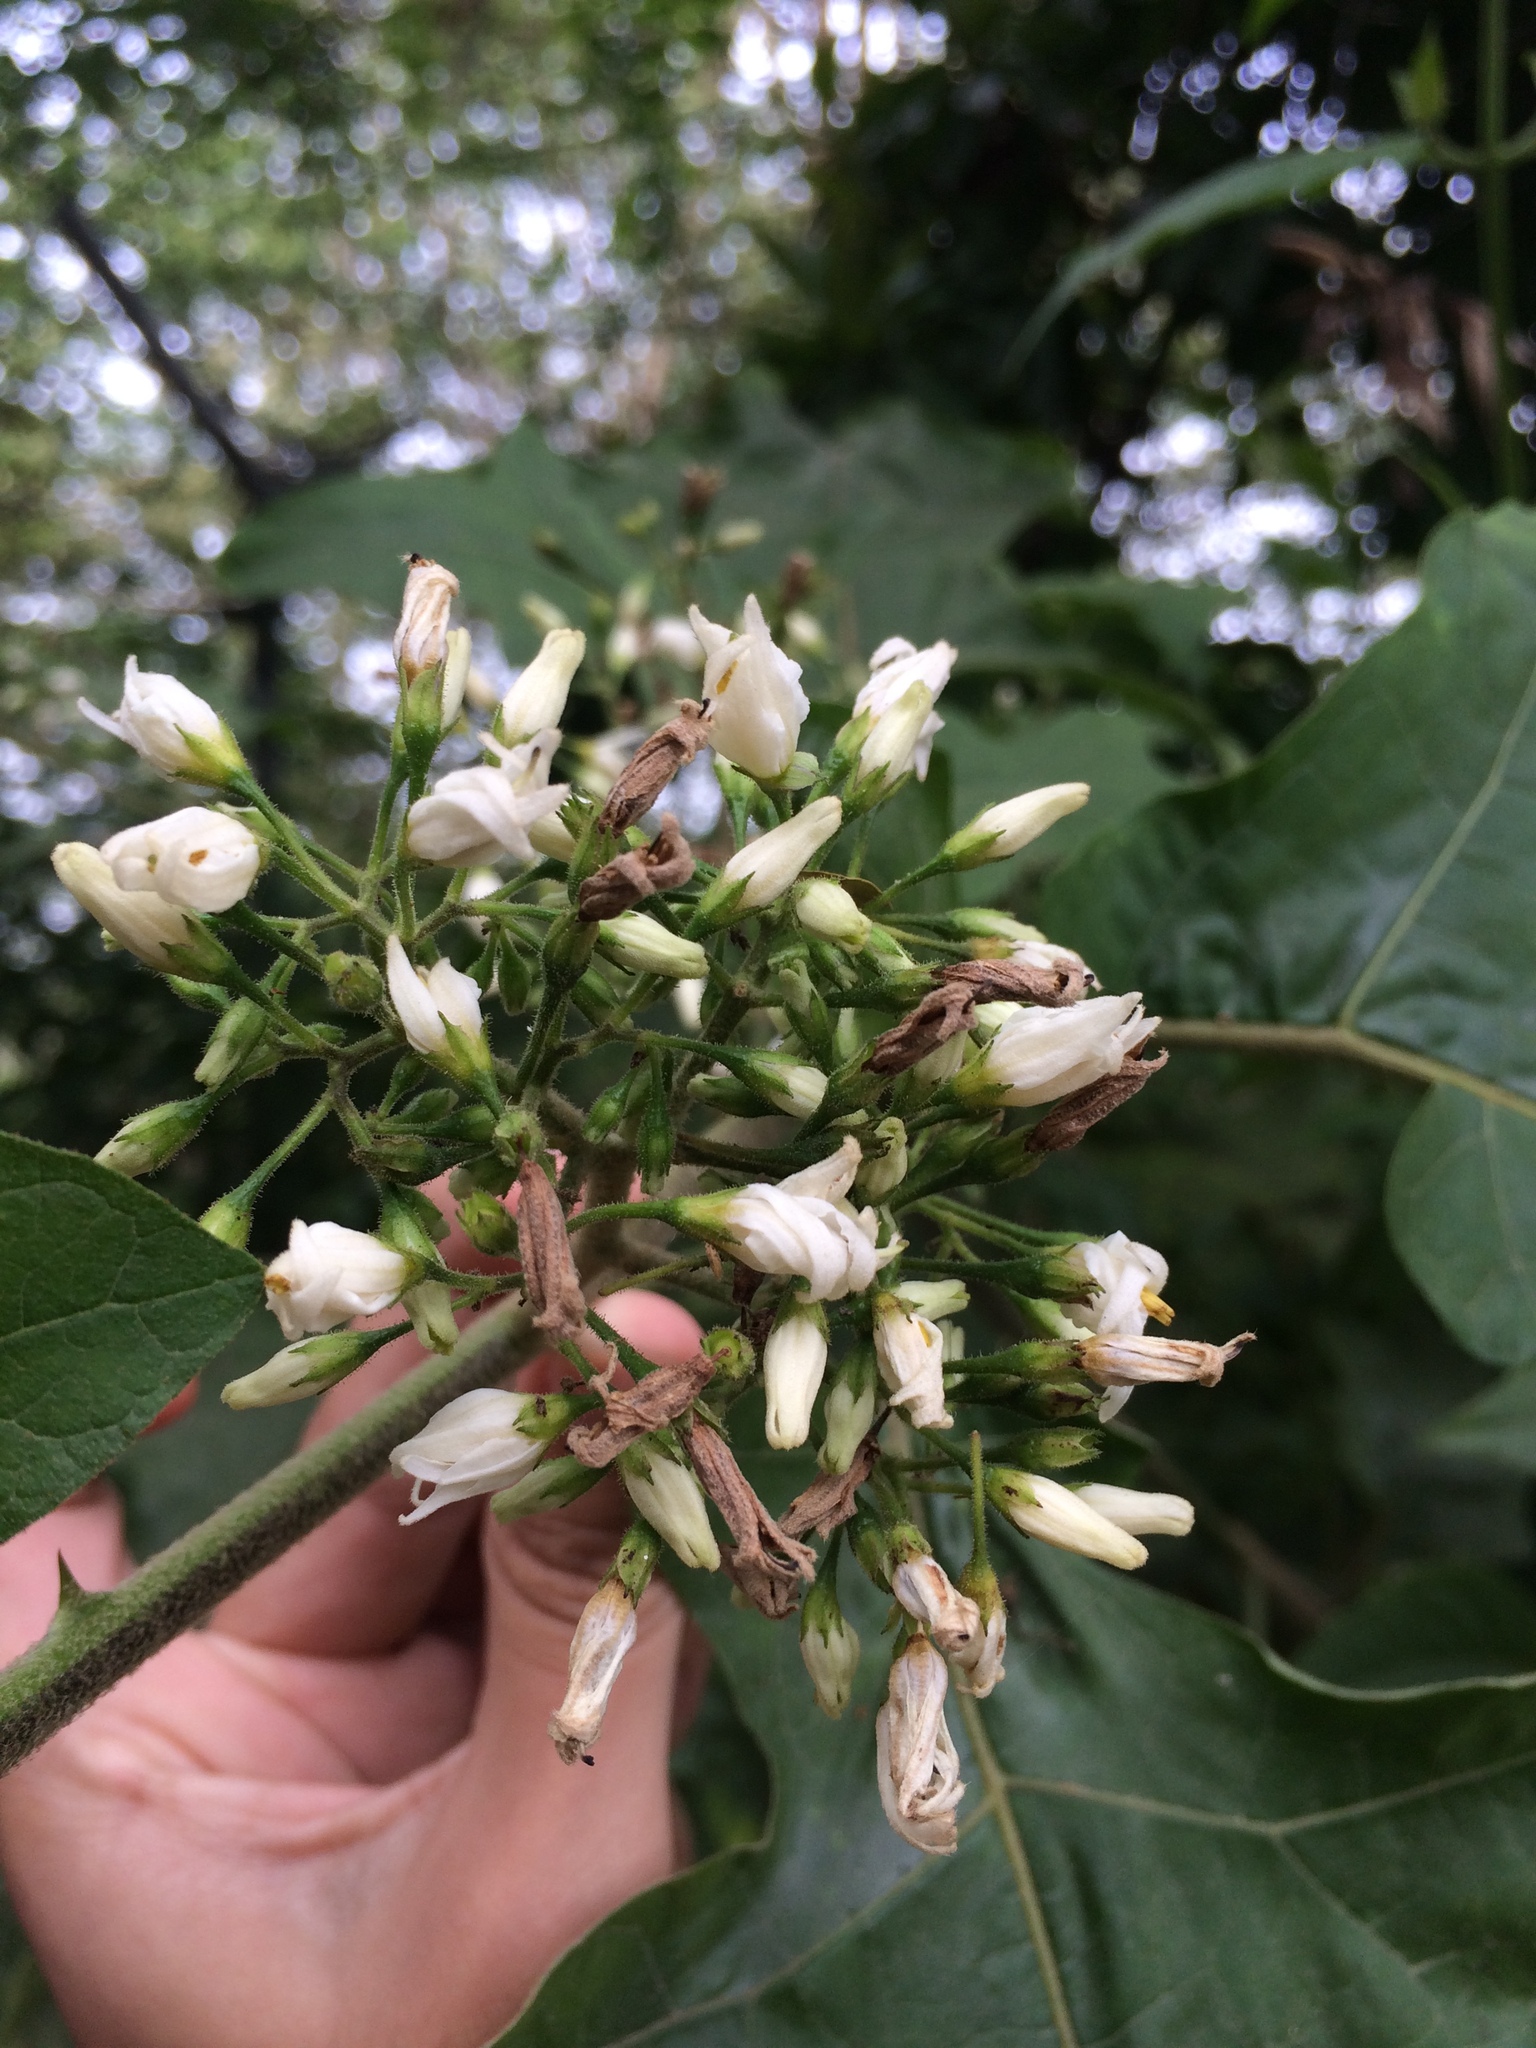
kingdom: Plantae
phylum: Tracheophyta
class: Magnoliopsida
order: Solanales
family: Solanaceae
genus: Solanum
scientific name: Solanum torvum
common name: Turkey berry
